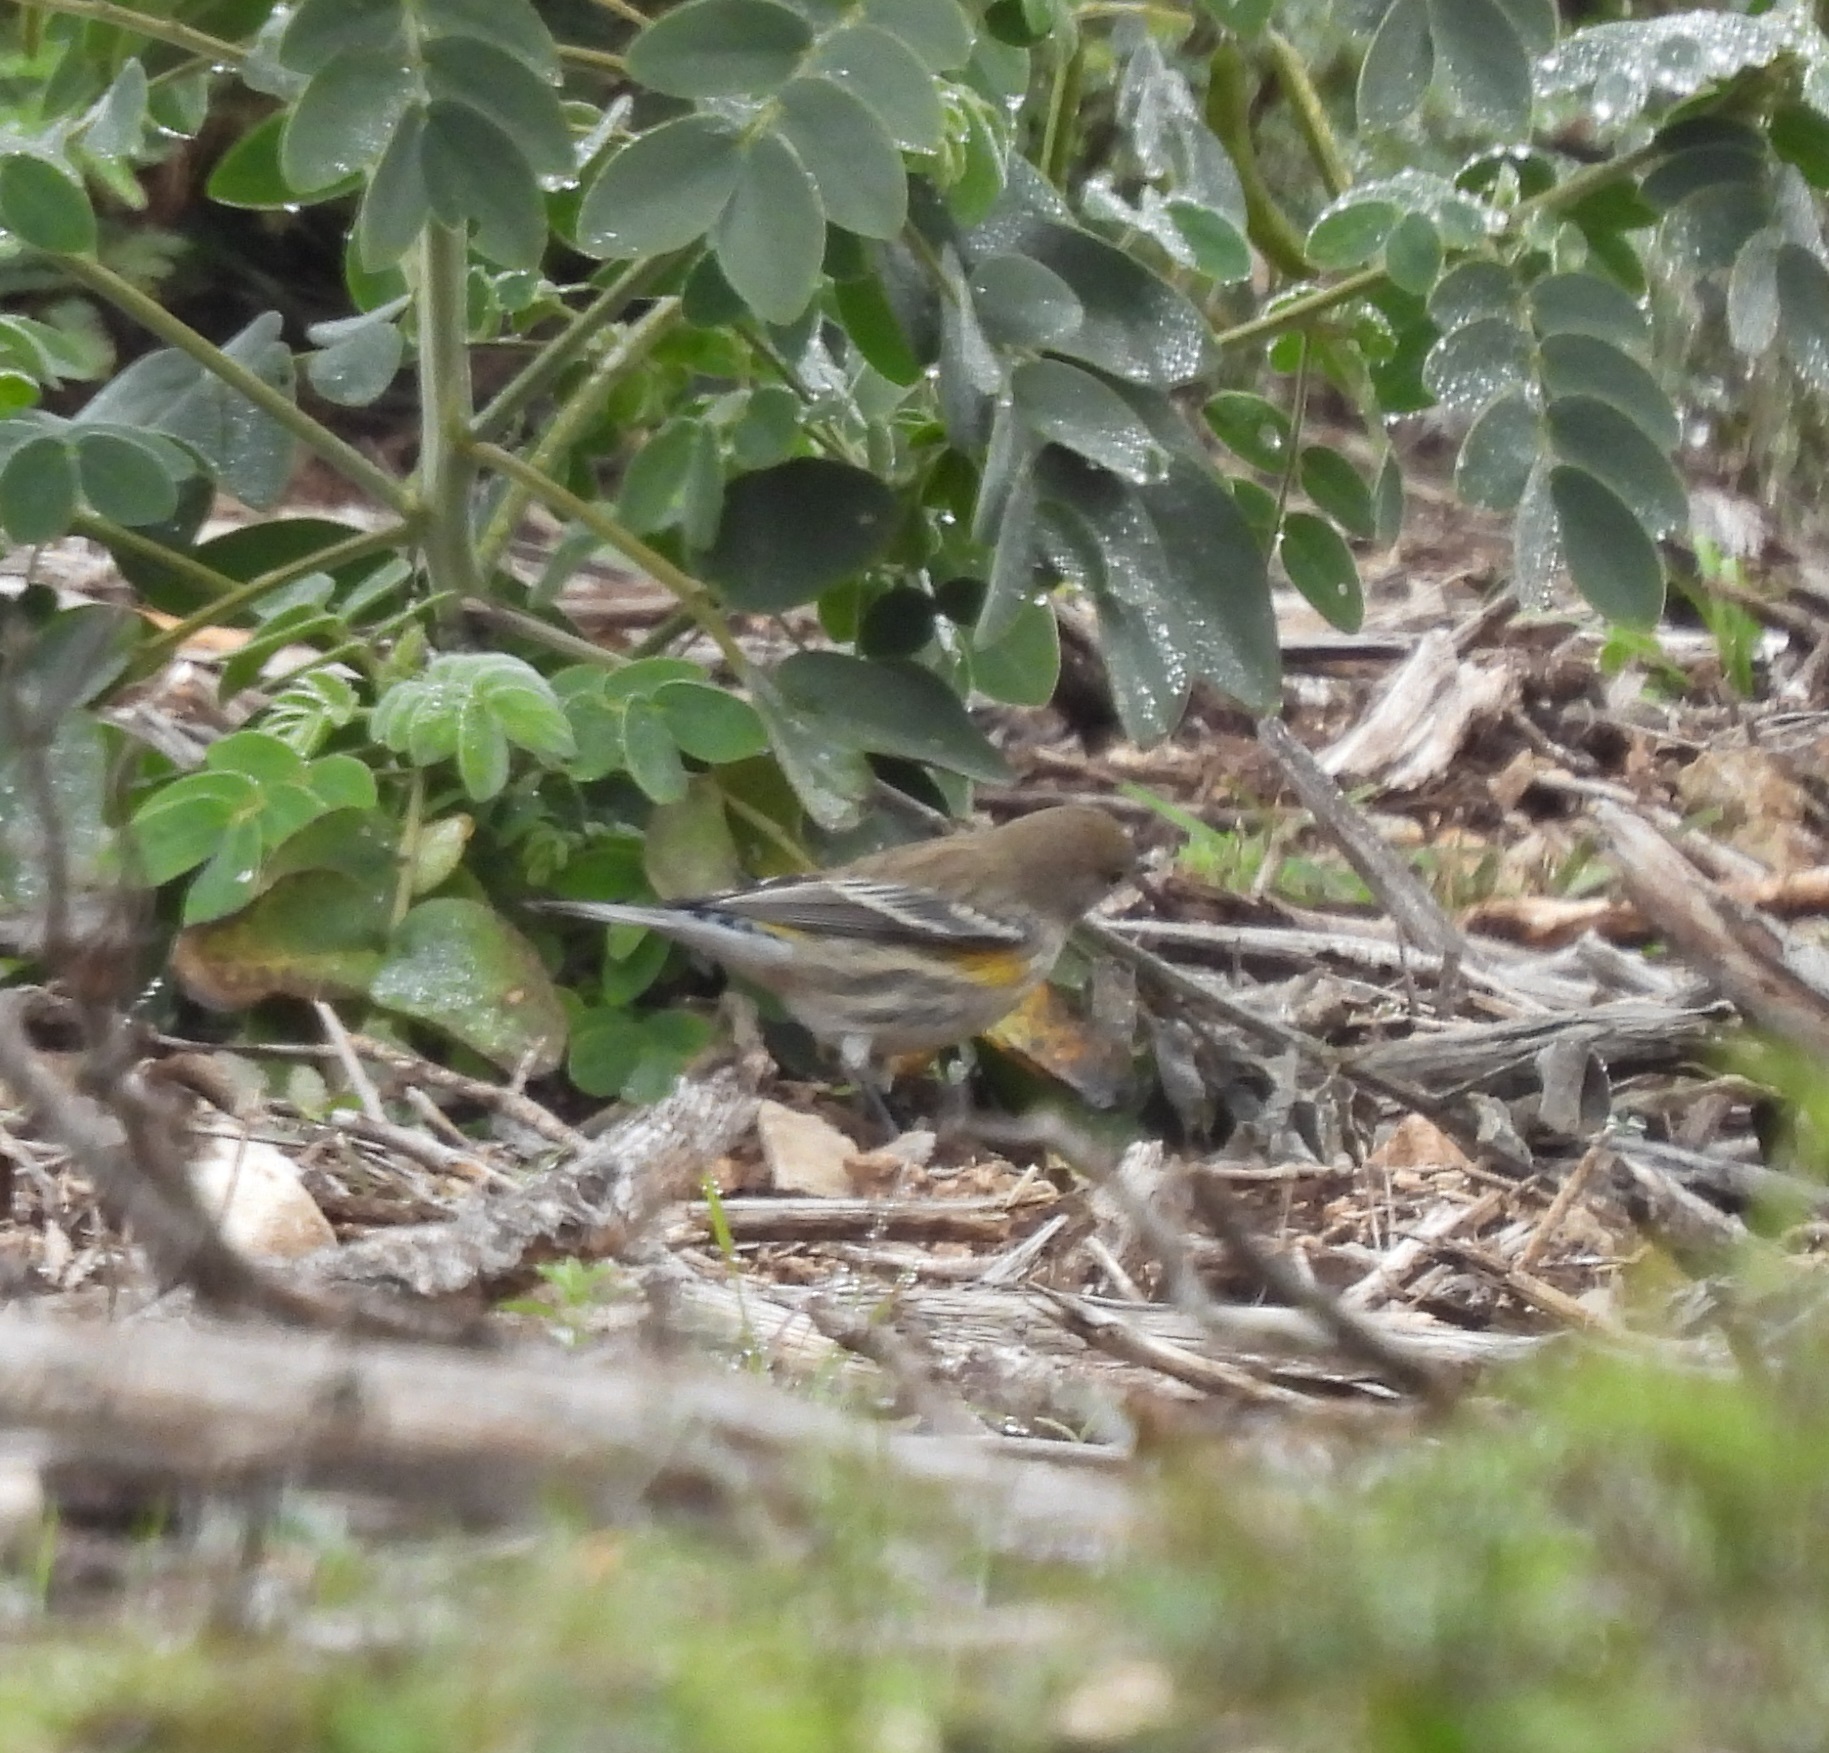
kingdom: Animalia
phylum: Chordata
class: Aves
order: Passeriformes
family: Parulidae
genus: Setophaga
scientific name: Setophaga coronata
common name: Myrtle warbler
